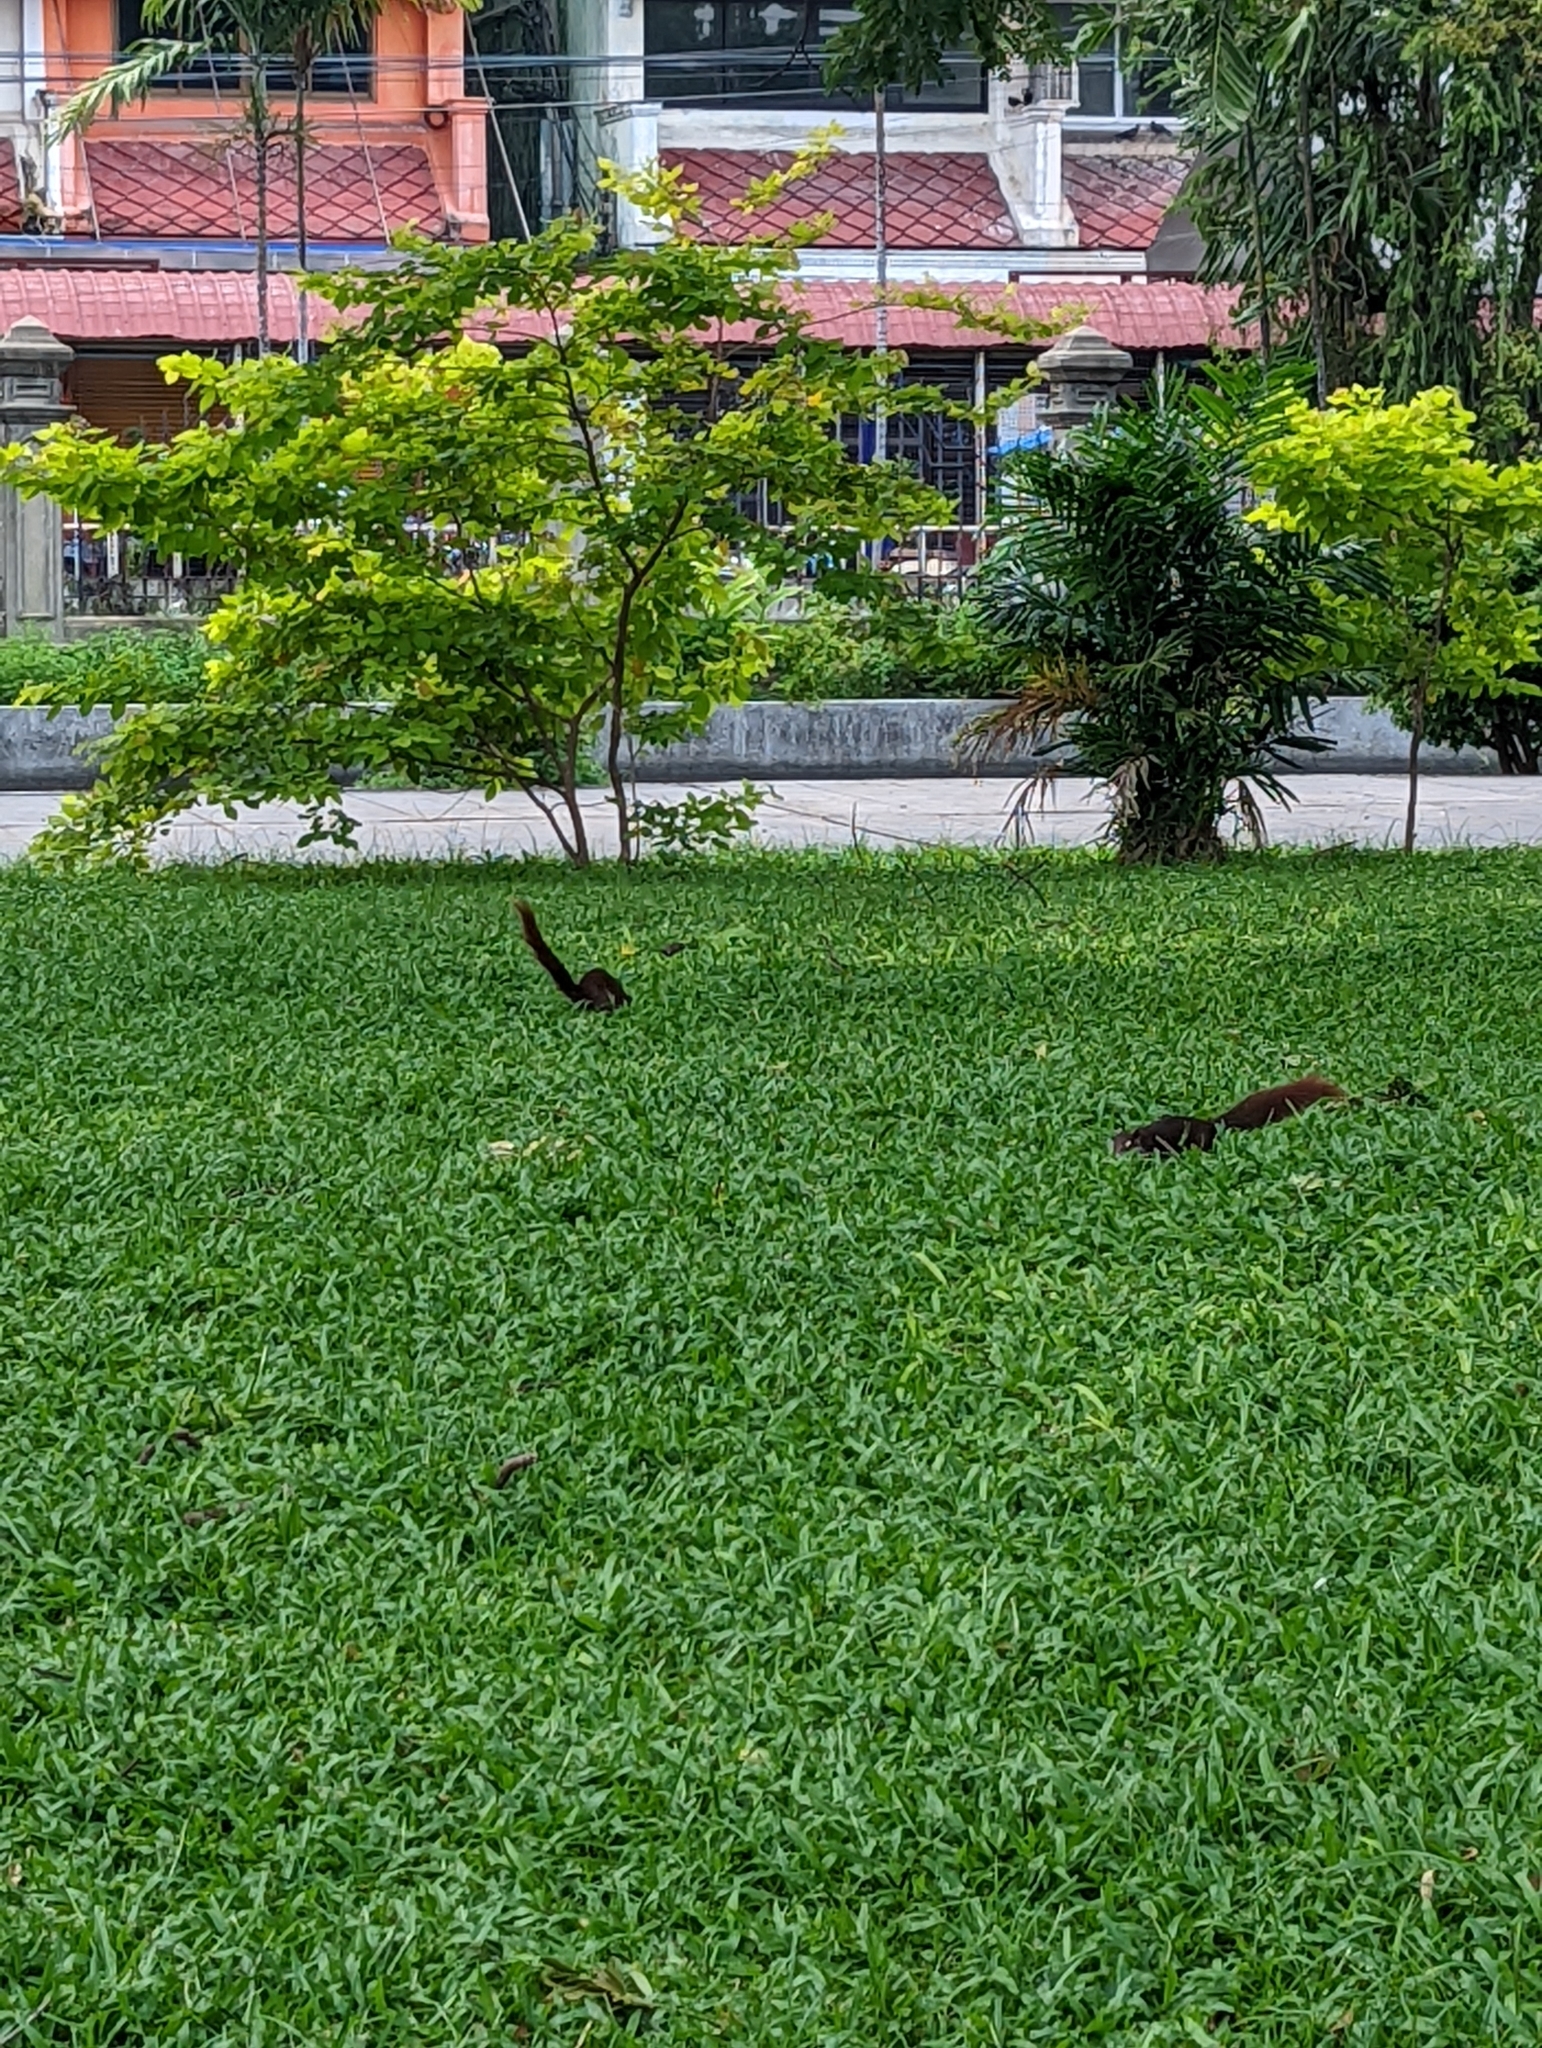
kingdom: Animalia
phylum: Chordata
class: Mammalia
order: Rodentia
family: Sciuridae
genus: Callosciurus
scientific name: Callosciurus erythraeus
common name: Pallas's squirrel
